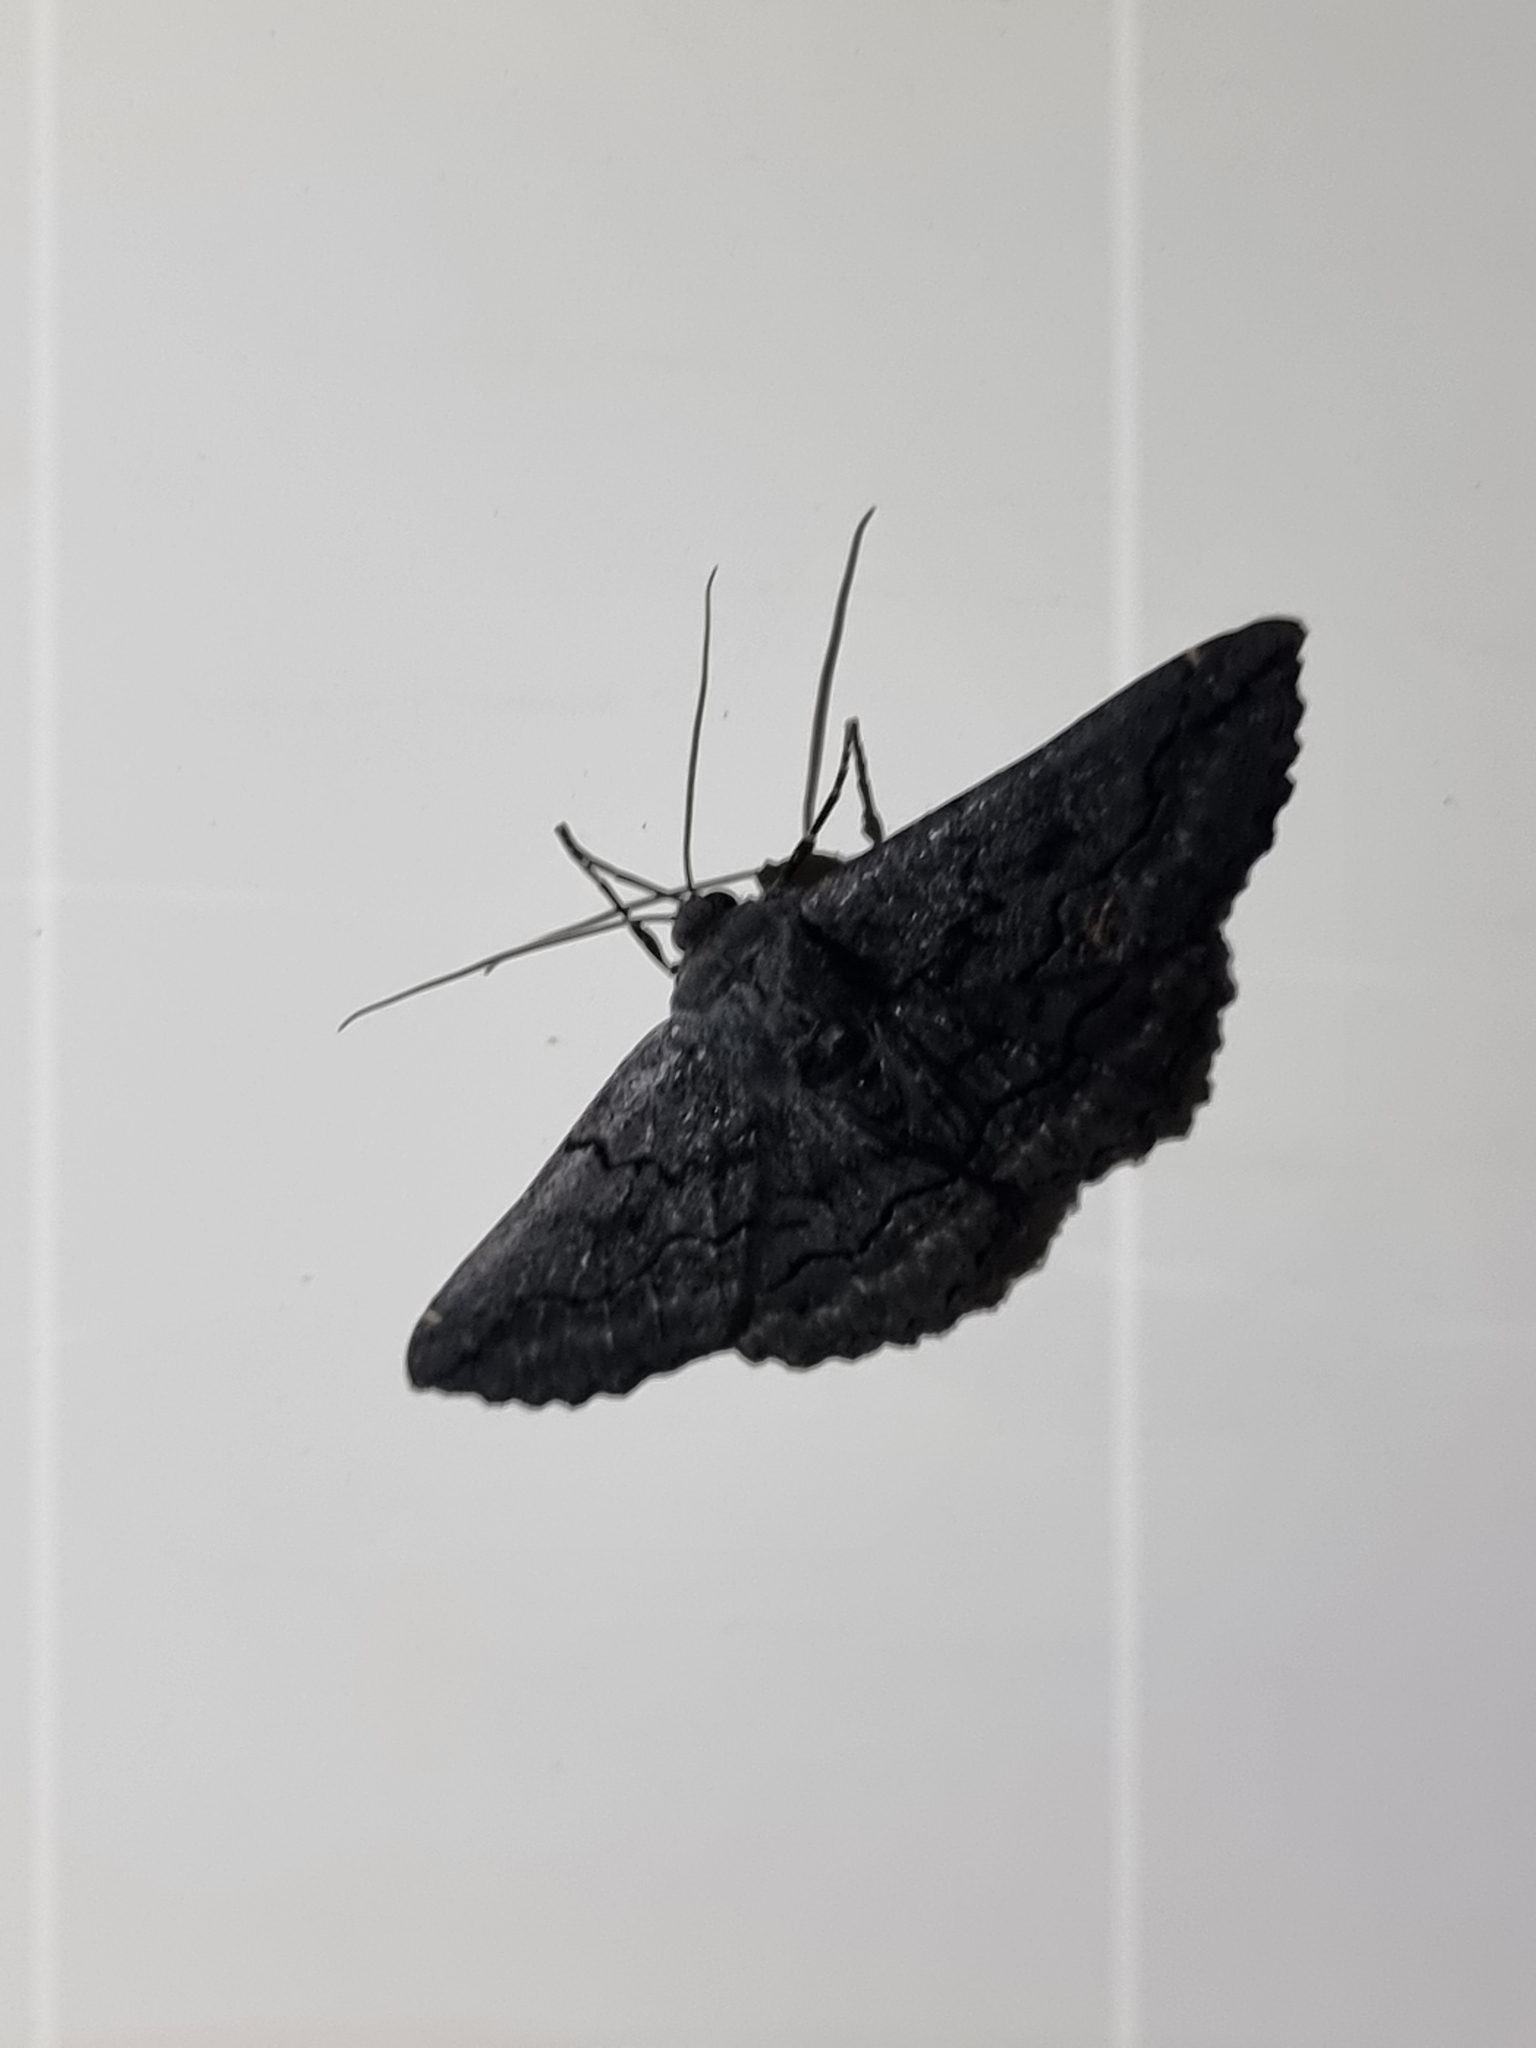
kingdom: Animalia
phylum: Arthropoda
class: Insecta
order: Lepidoptera
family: Geometridae
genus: Melanodes
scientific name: Melanodes anthracitaria
